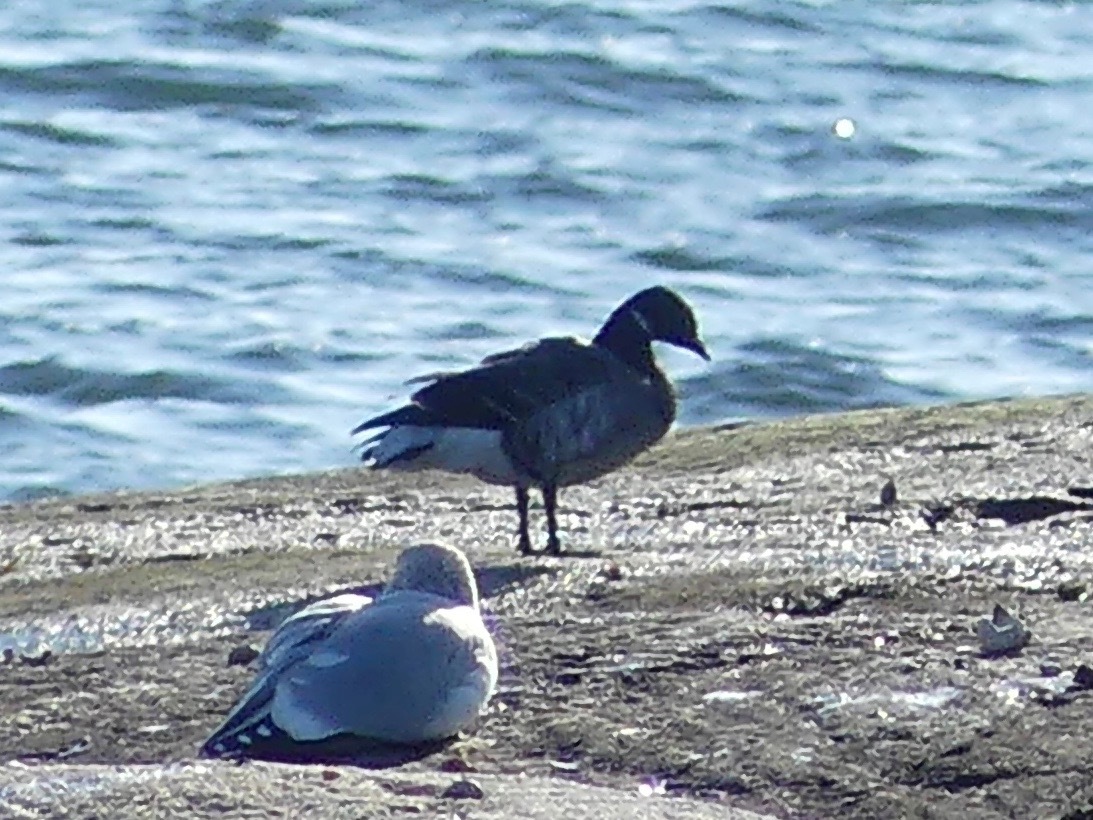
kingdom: Animalia
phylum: Chordata
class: Aves
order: Anseriformes
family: Anatidae
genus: Branta
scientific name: Branta bernicla
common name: Brant goose
